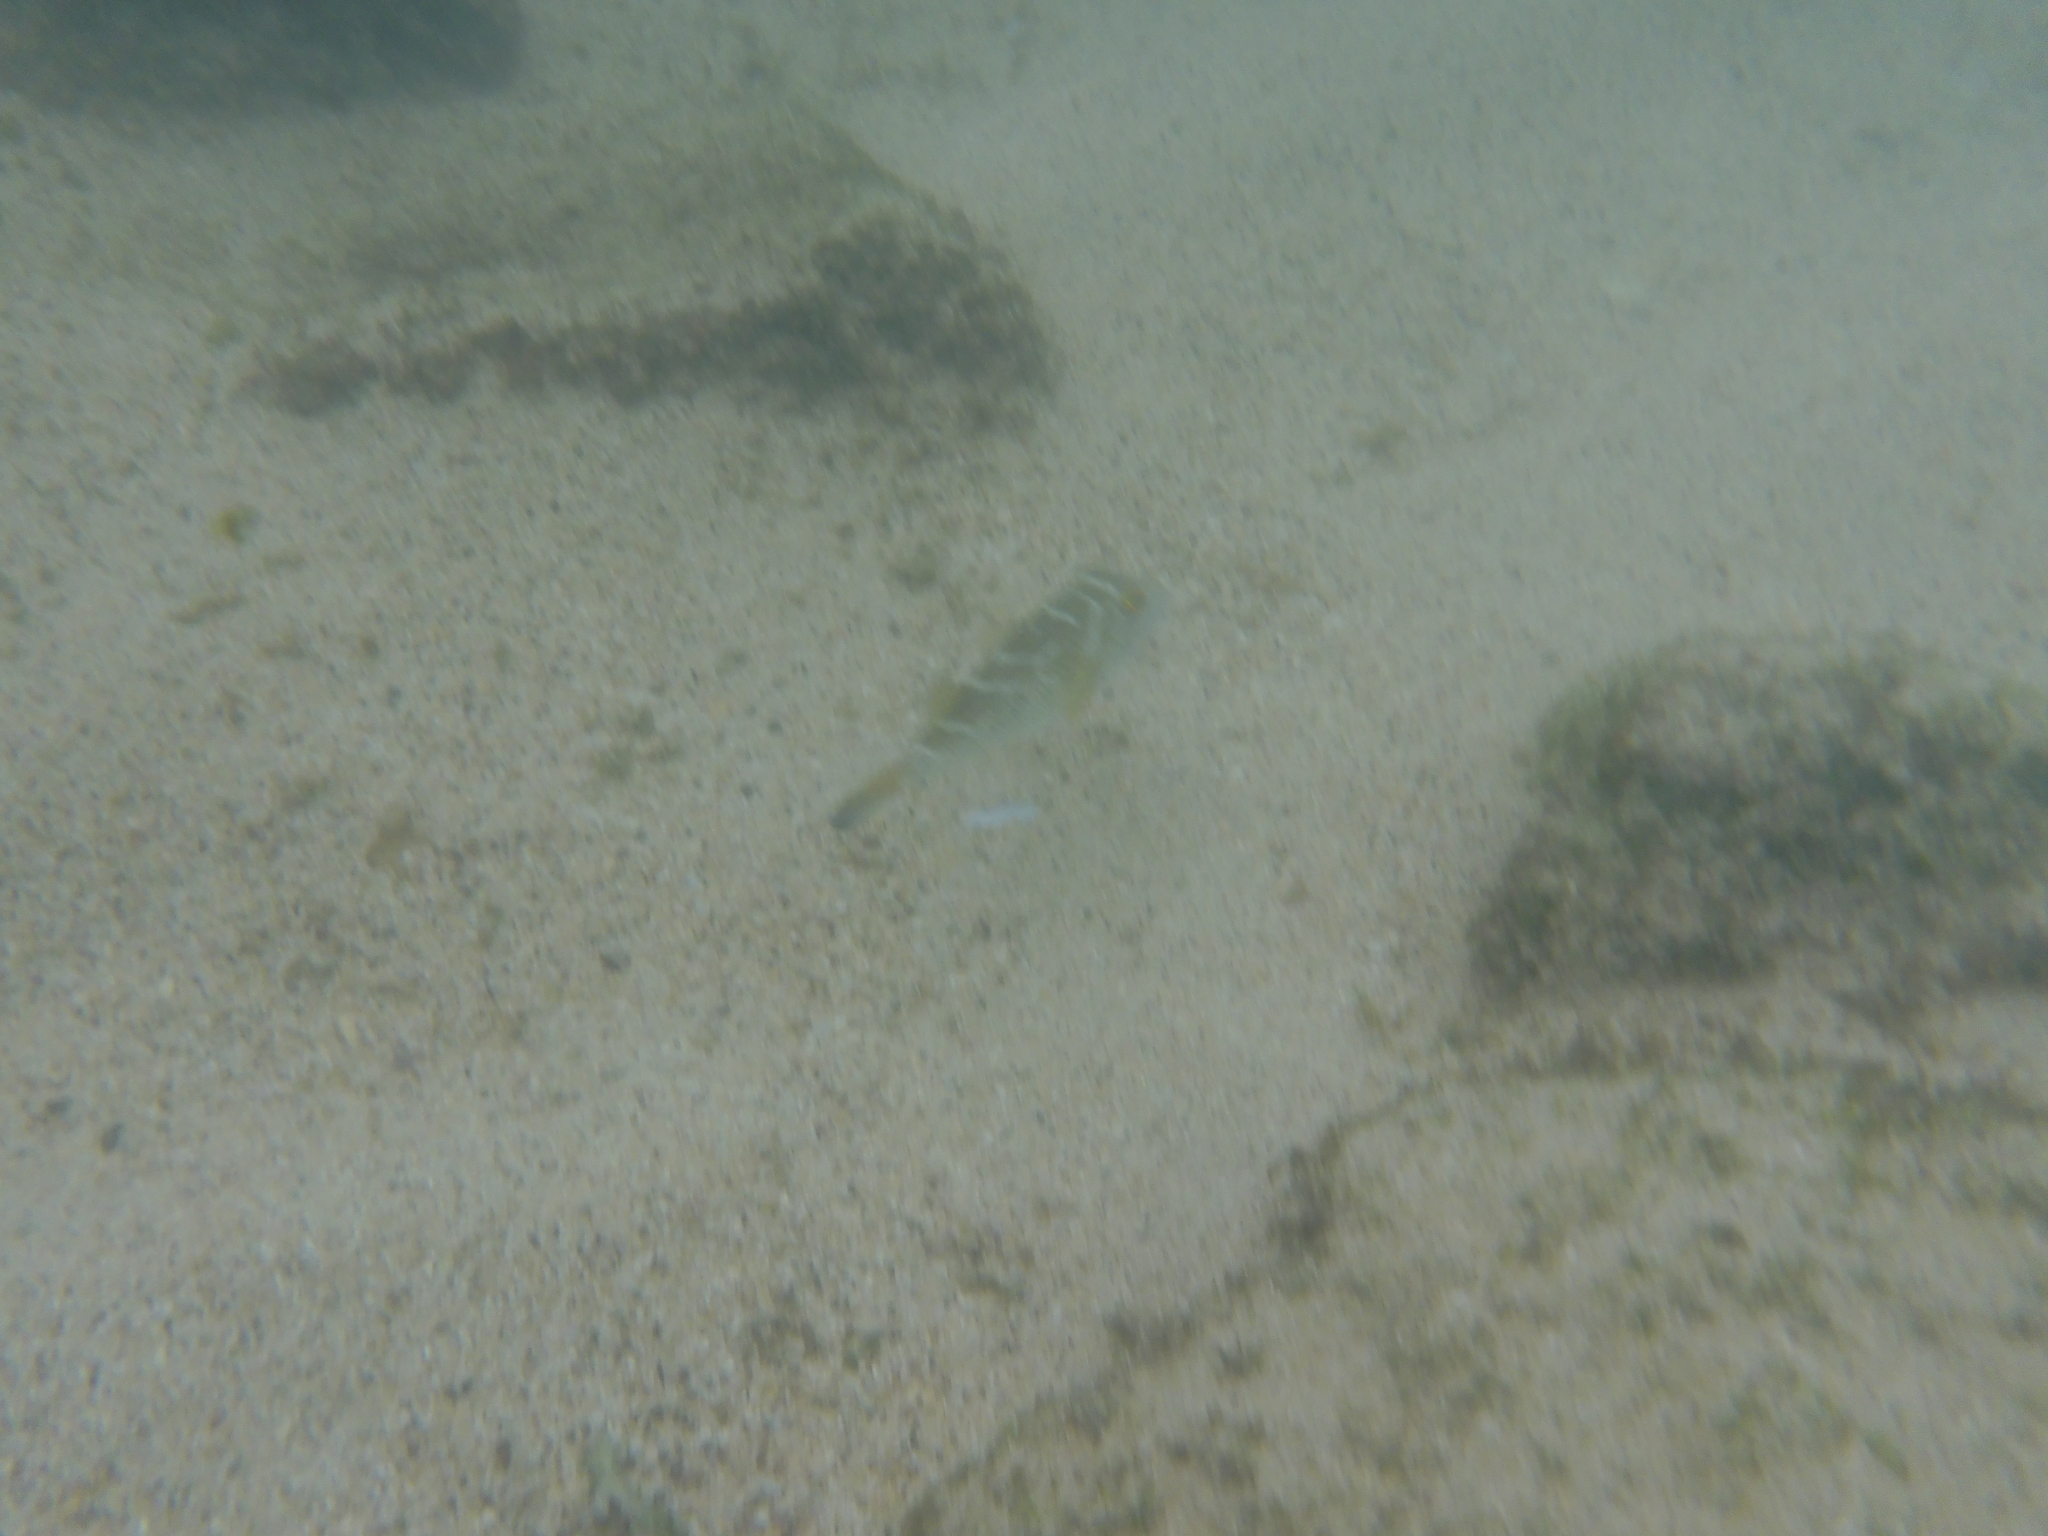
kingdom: Animalia
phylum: Chordata
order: Tetraodontiformes
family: Tetraodontidae
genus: Sphoeroides
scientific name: Sphoeroides annulatus
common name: Bullseye puffer
